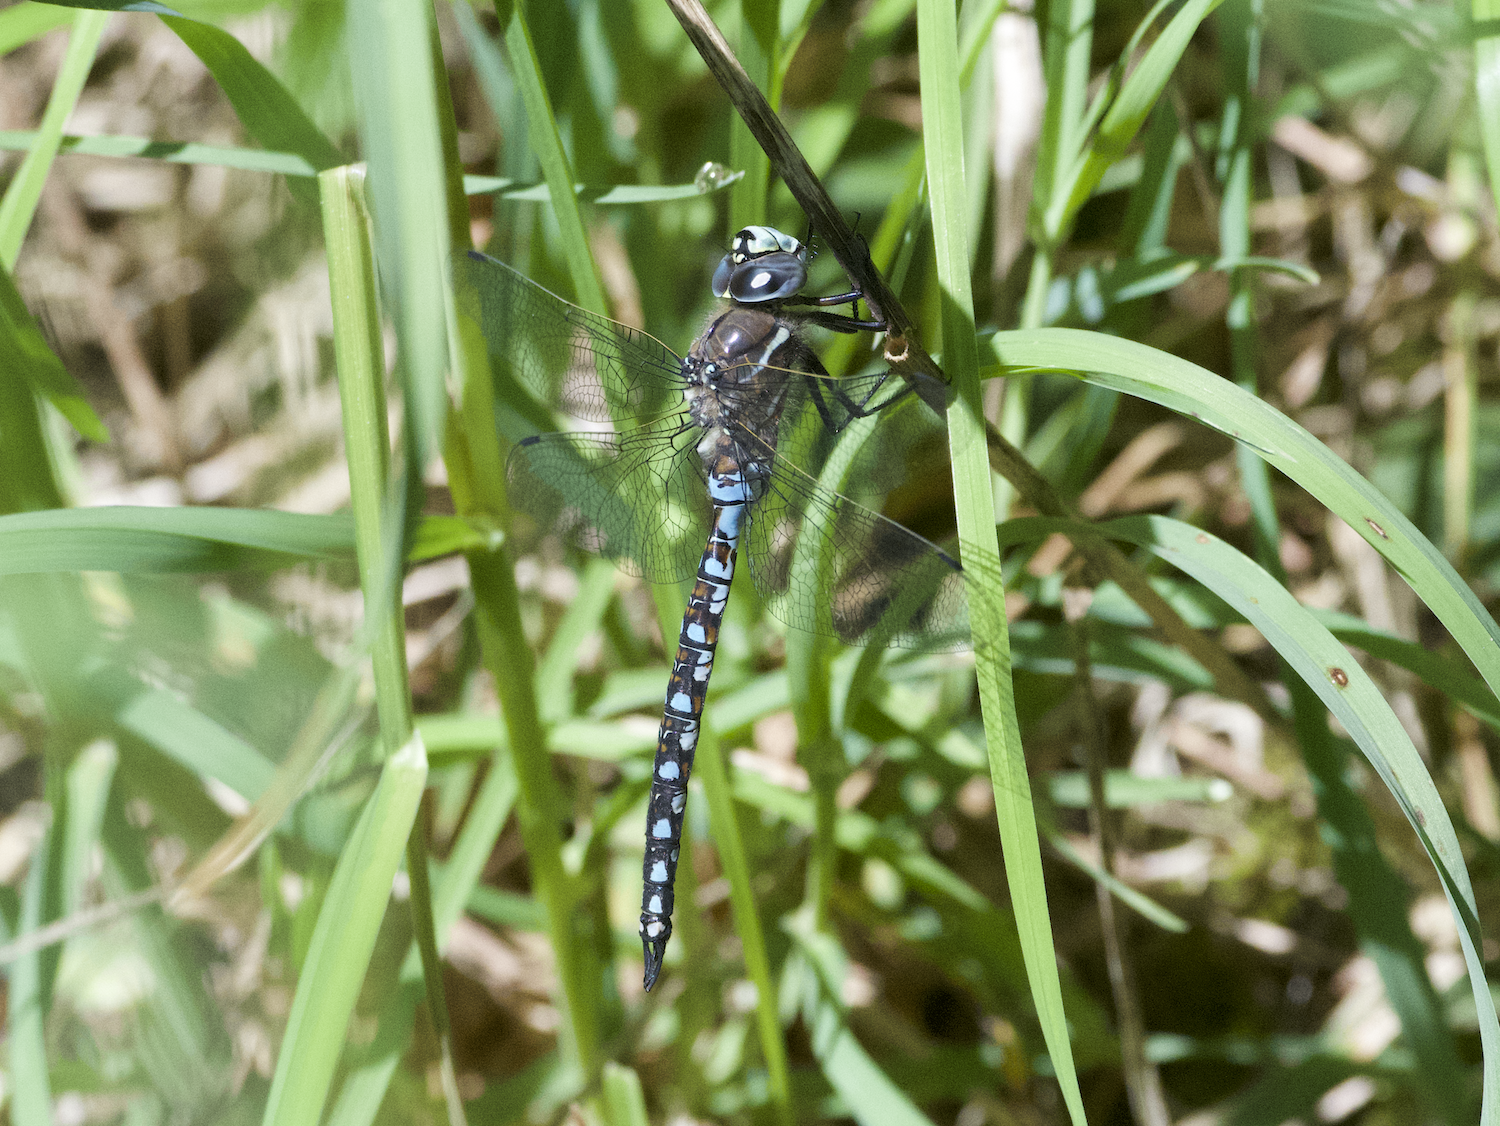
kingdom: Animalia
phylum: Arthropoda
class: Insecta
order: Odonata
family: Aeshnidae
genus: Rhionaeschna
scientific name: Rhionaeschna californica
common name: California darner
